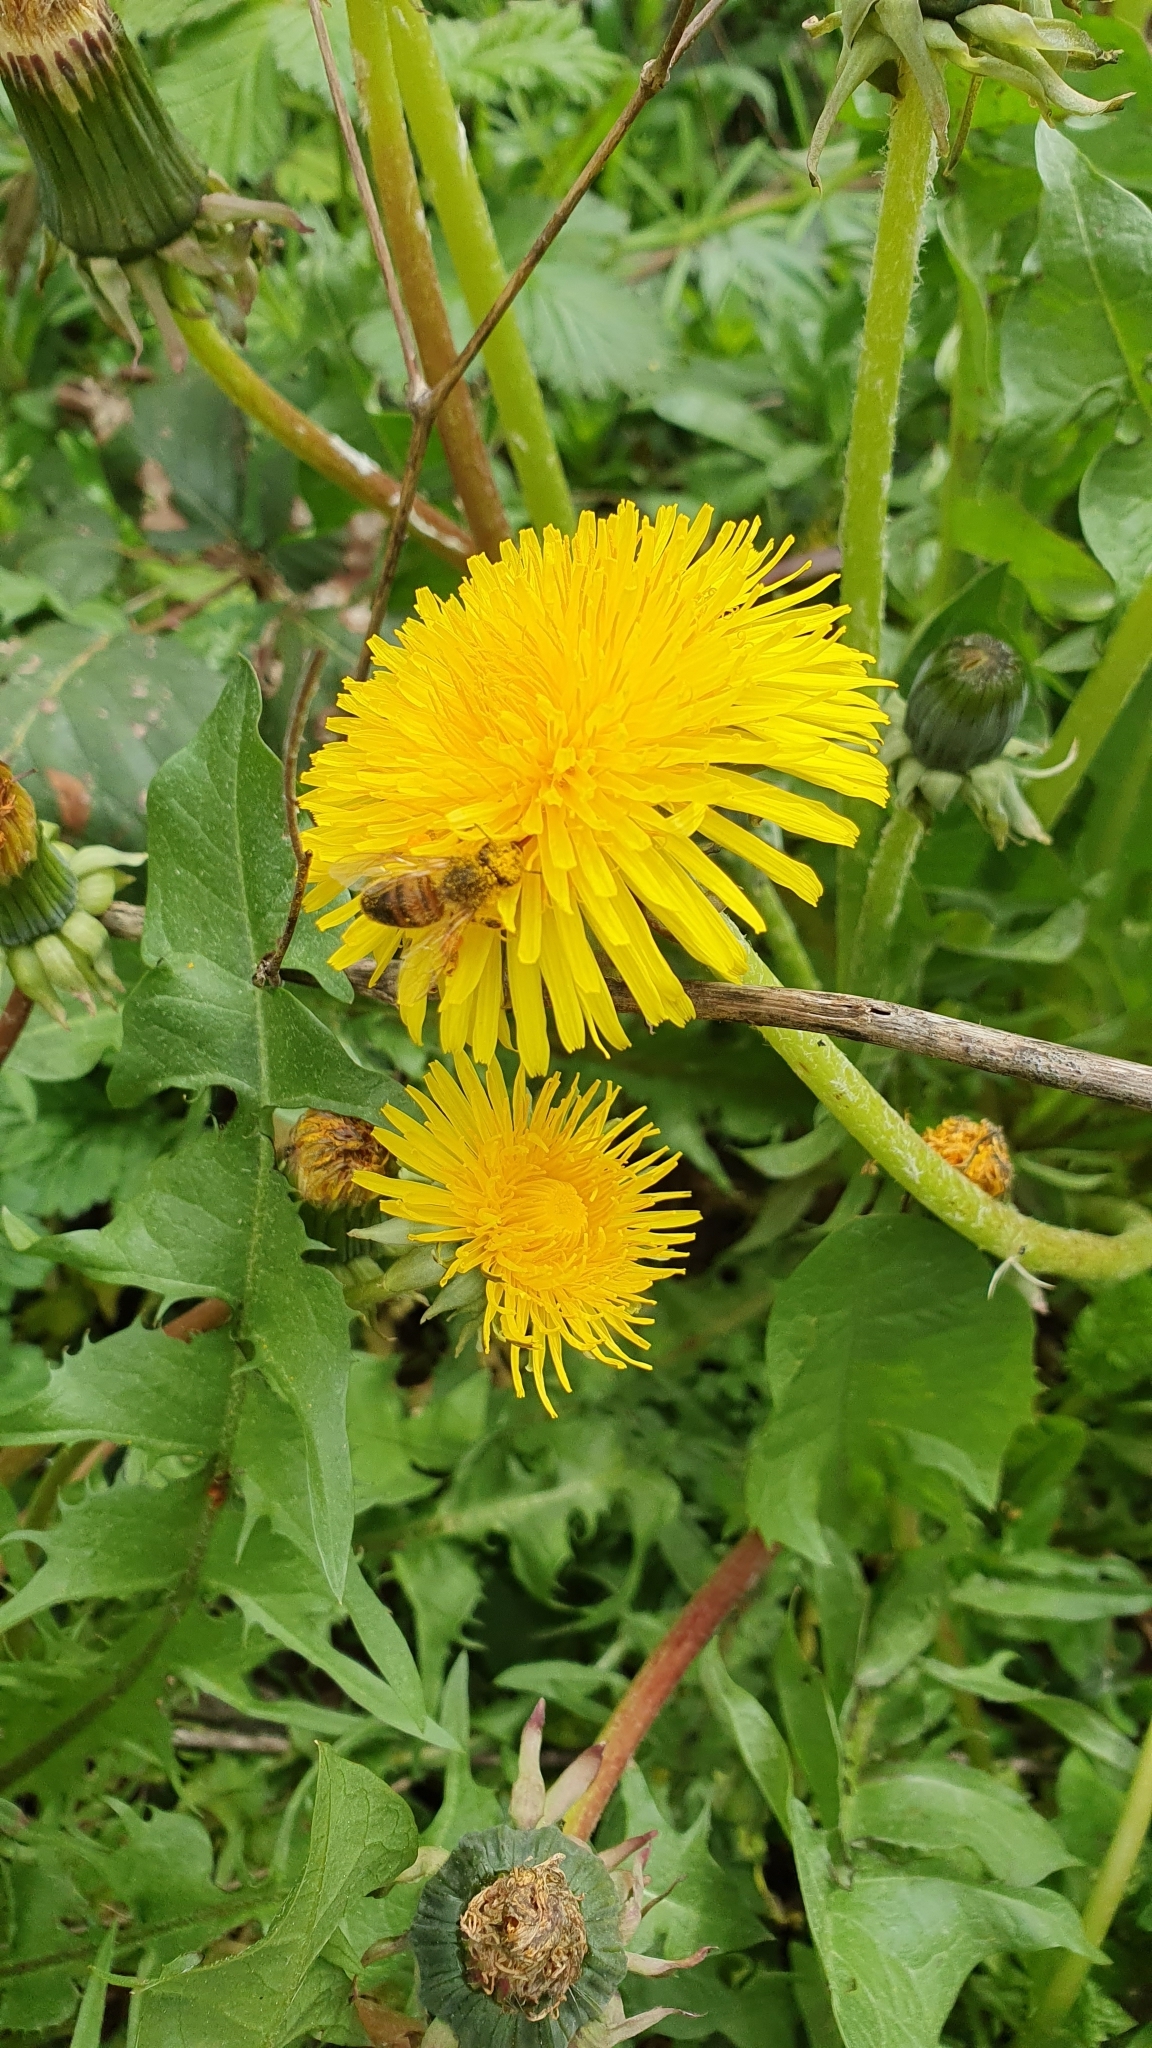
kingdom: Animalia
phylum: Arthropoda
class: Insecta
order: Hymenoptera
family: Apidae
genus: Apis
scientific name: Apis mellifera
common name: Honey bee
